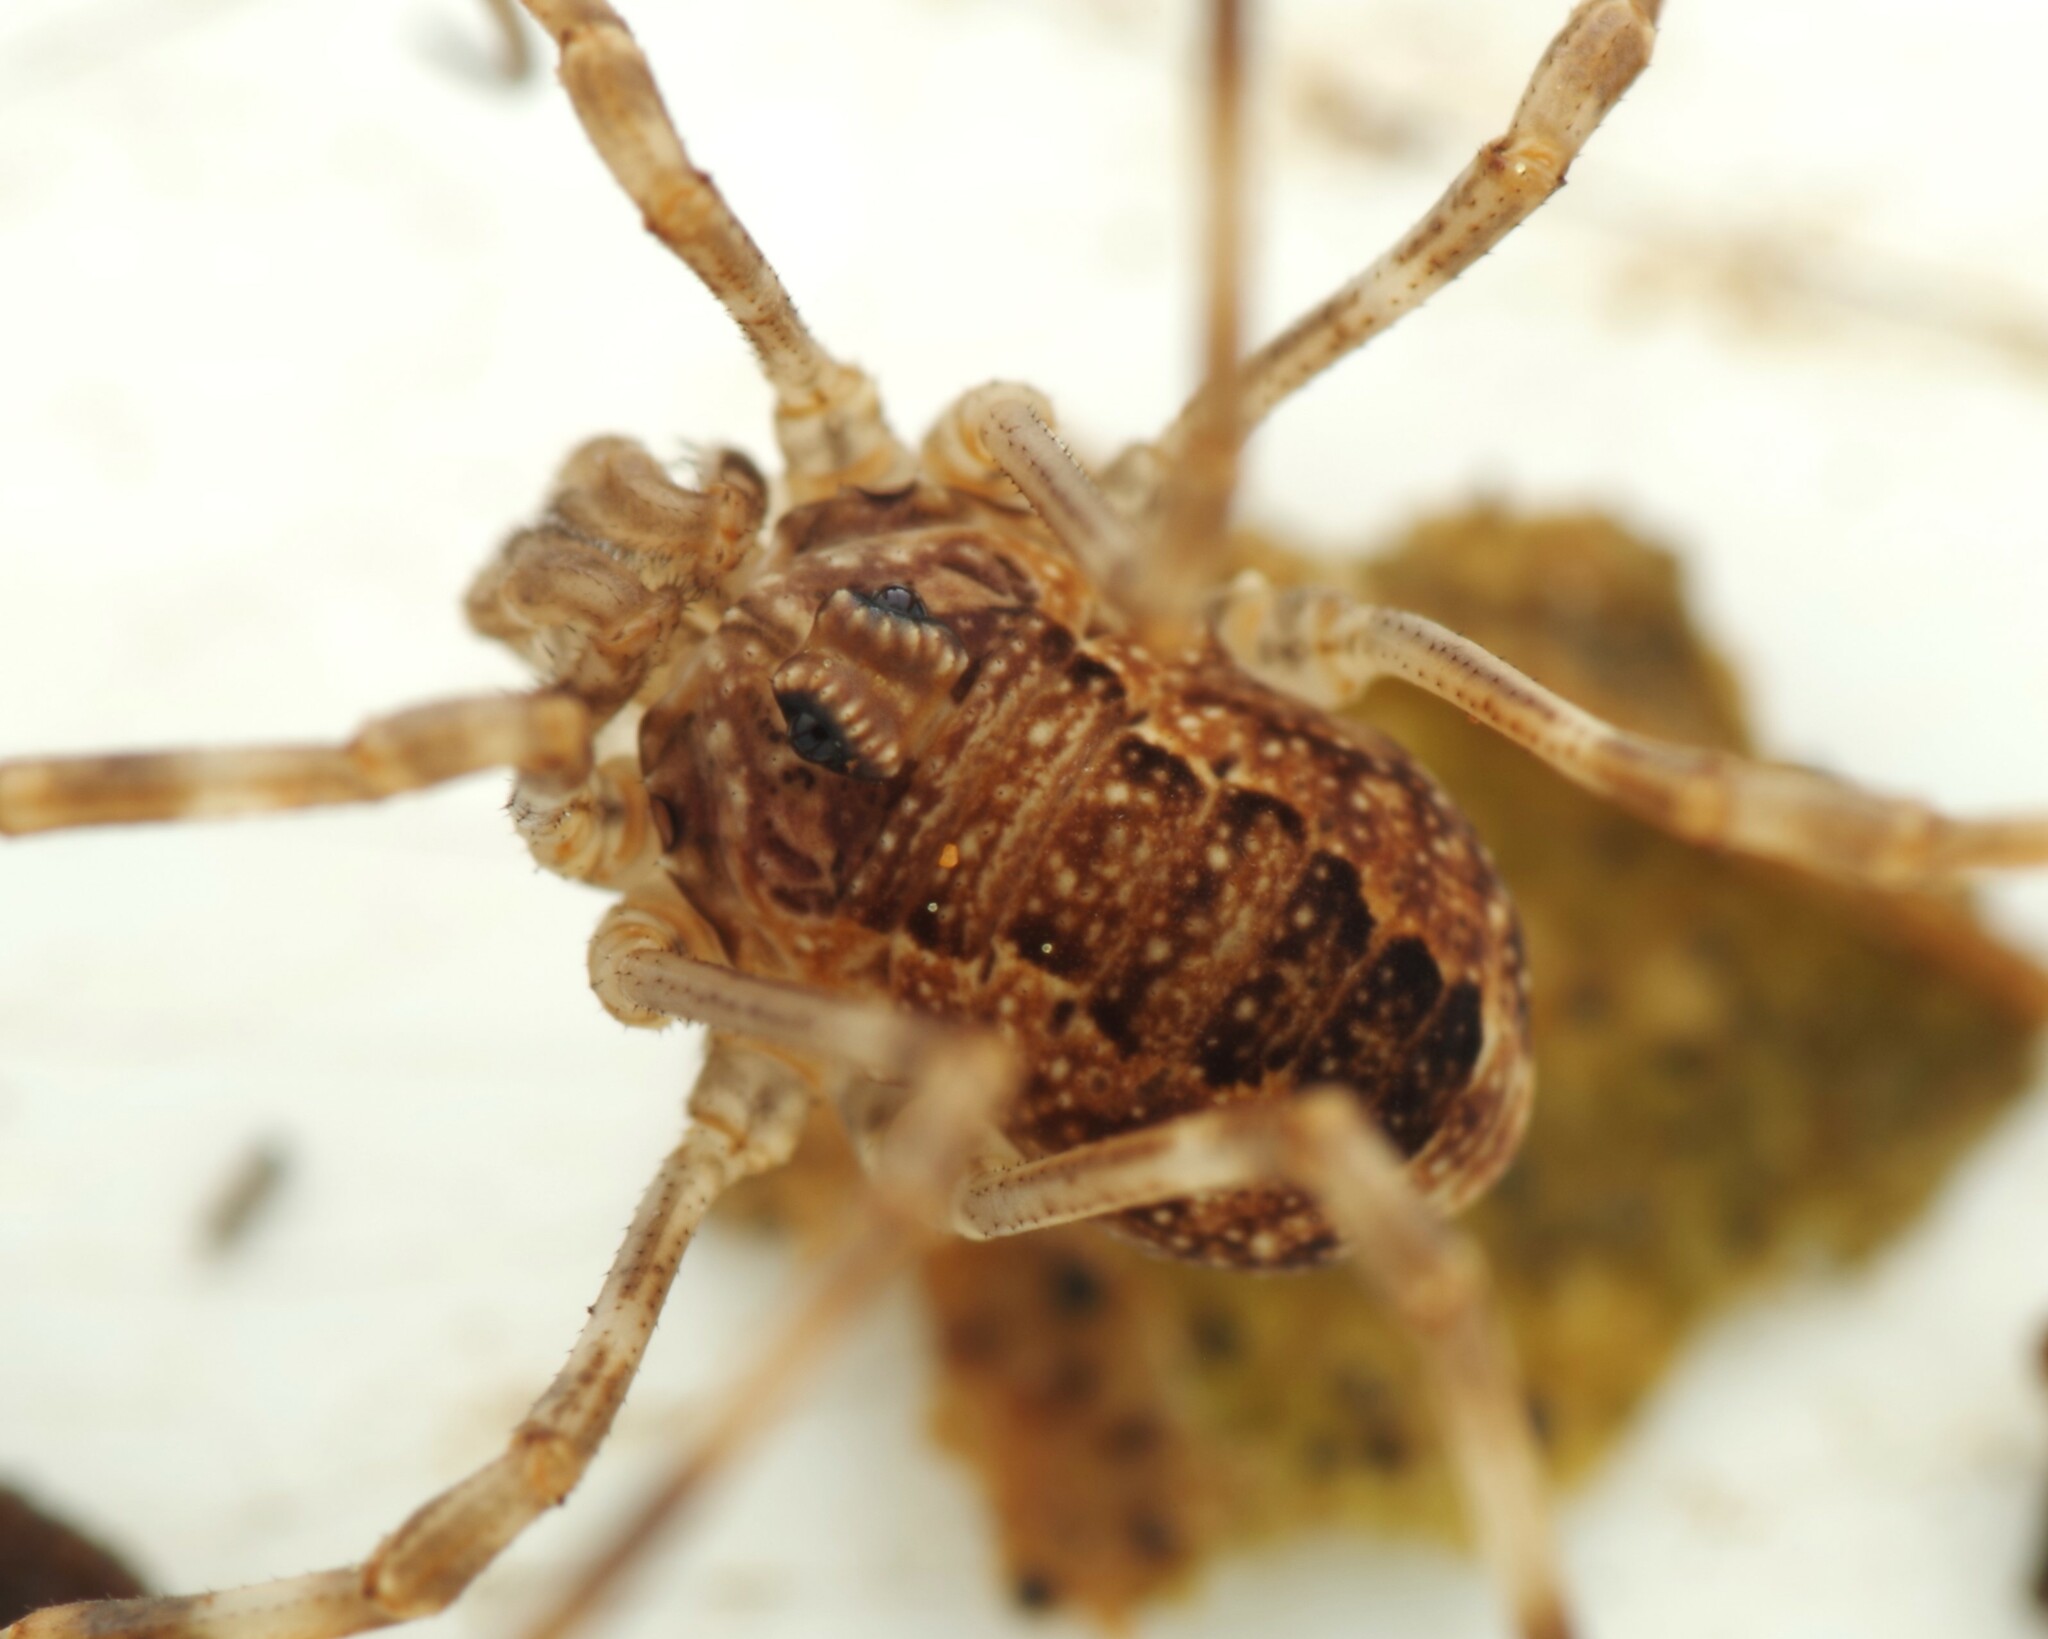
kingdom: Animalia
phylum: Arthropoda
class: Arachnida
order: Opiliones
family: Phalangiidae
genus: Rilaena
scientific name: Rilaena triangularis
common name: Spring harvestman
